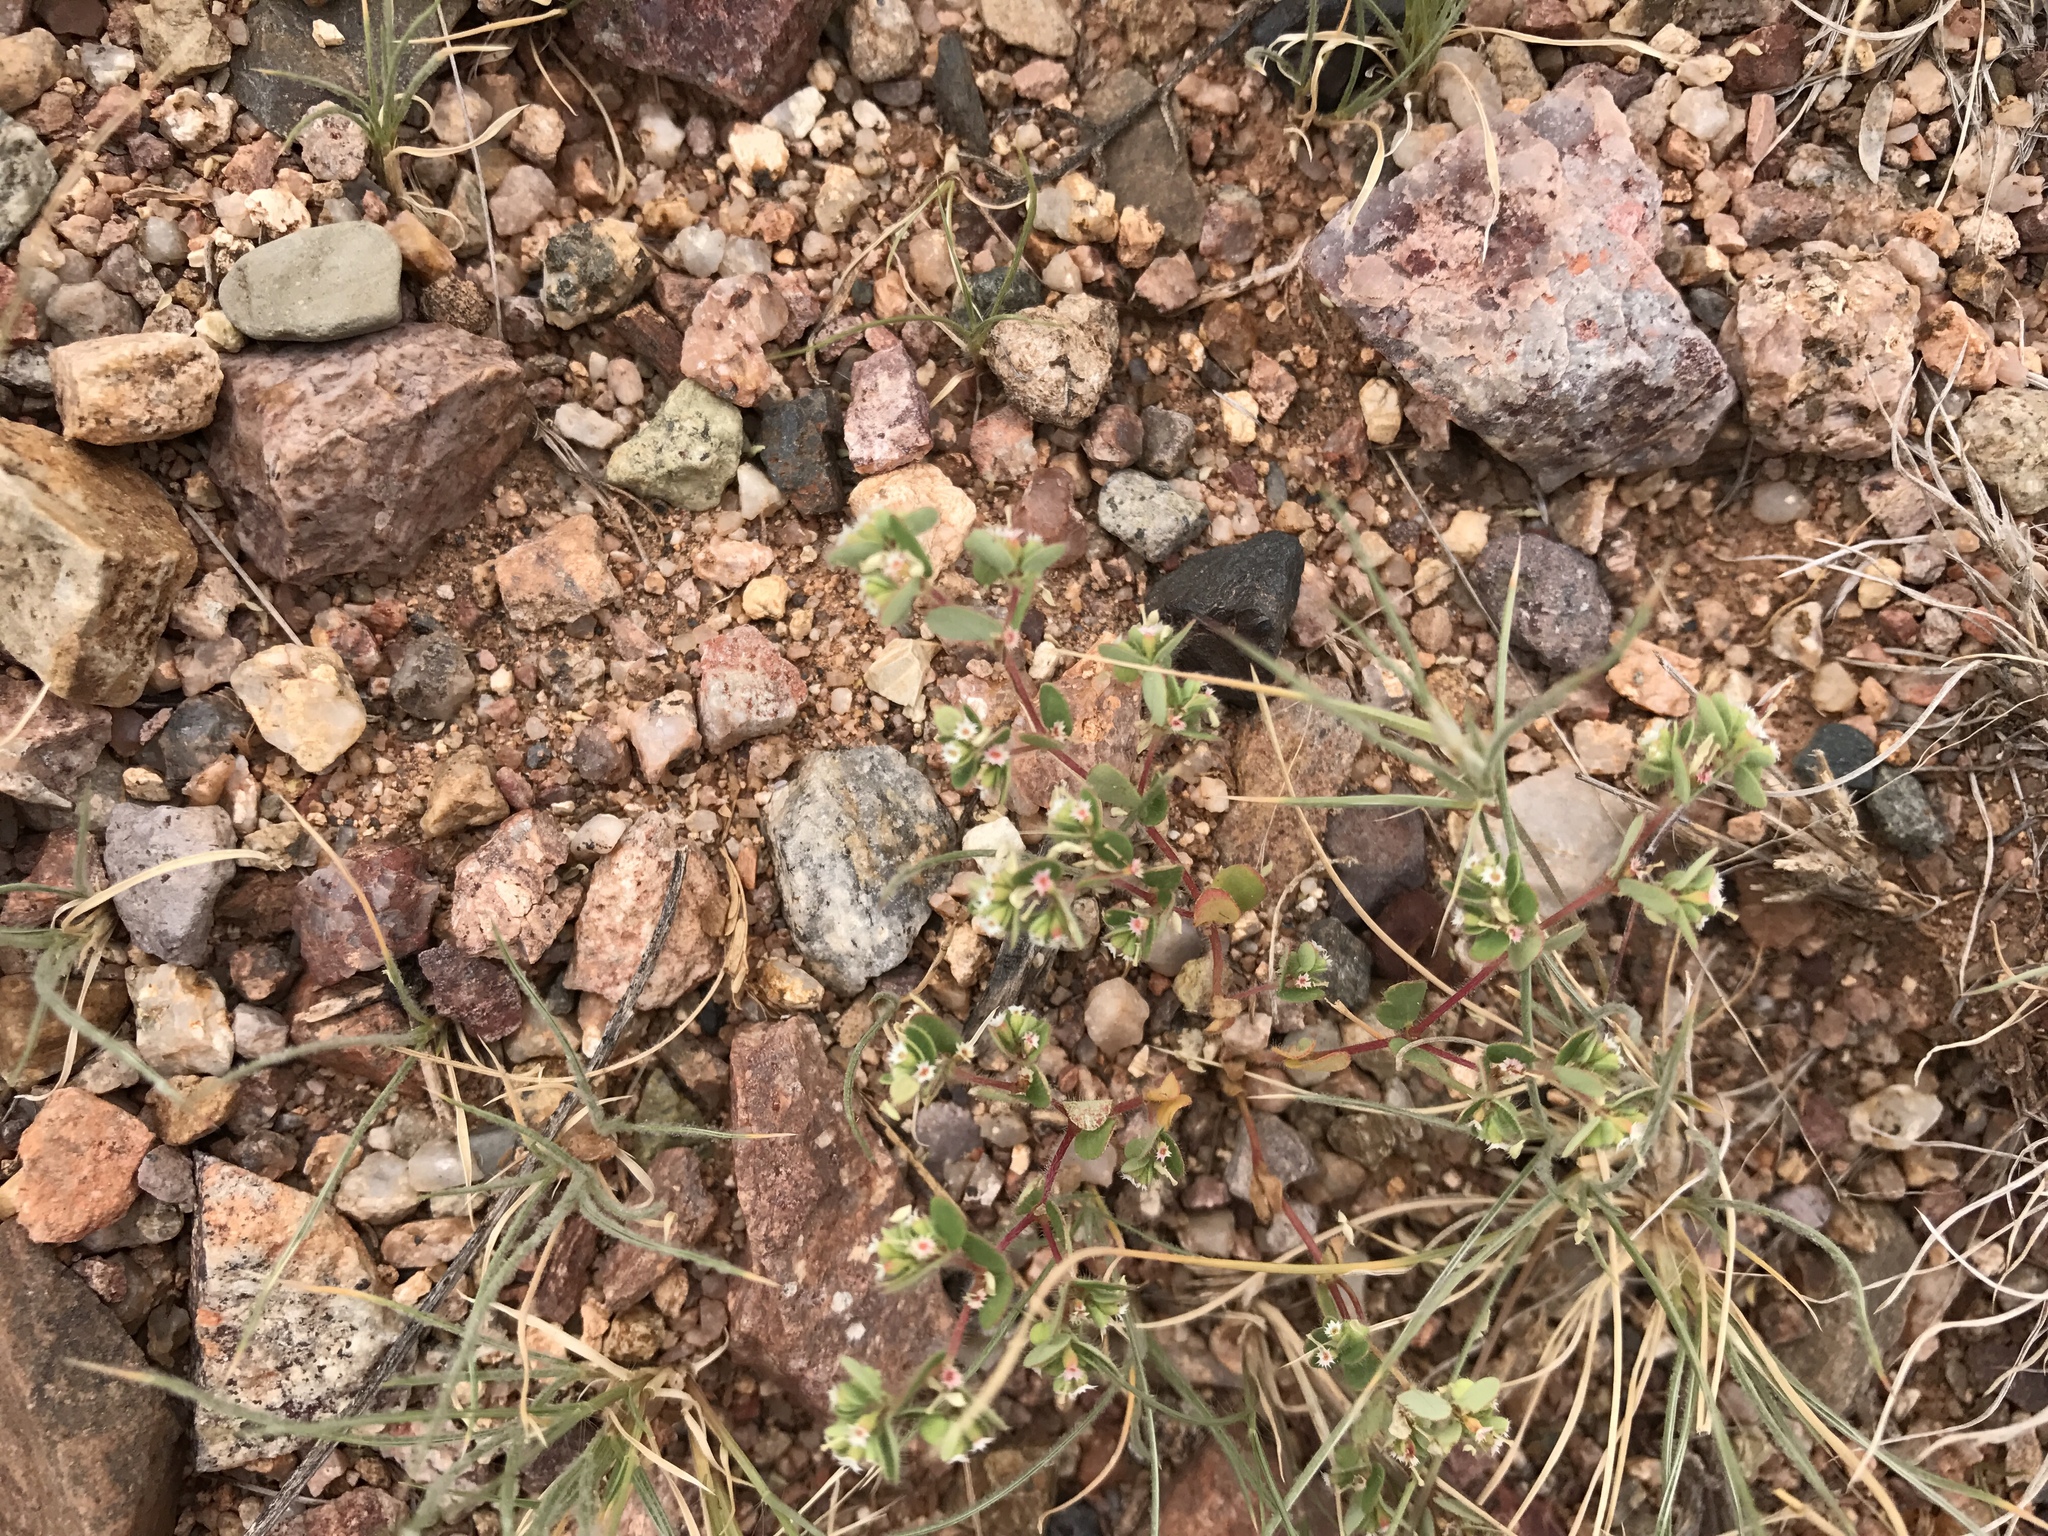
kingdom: Plantae
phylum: Tracheophyta
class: Magnoliopsida
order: Malpighiales
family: Euphorbiaceae
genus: Euphorbia
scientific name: Euphorbia setiloba
